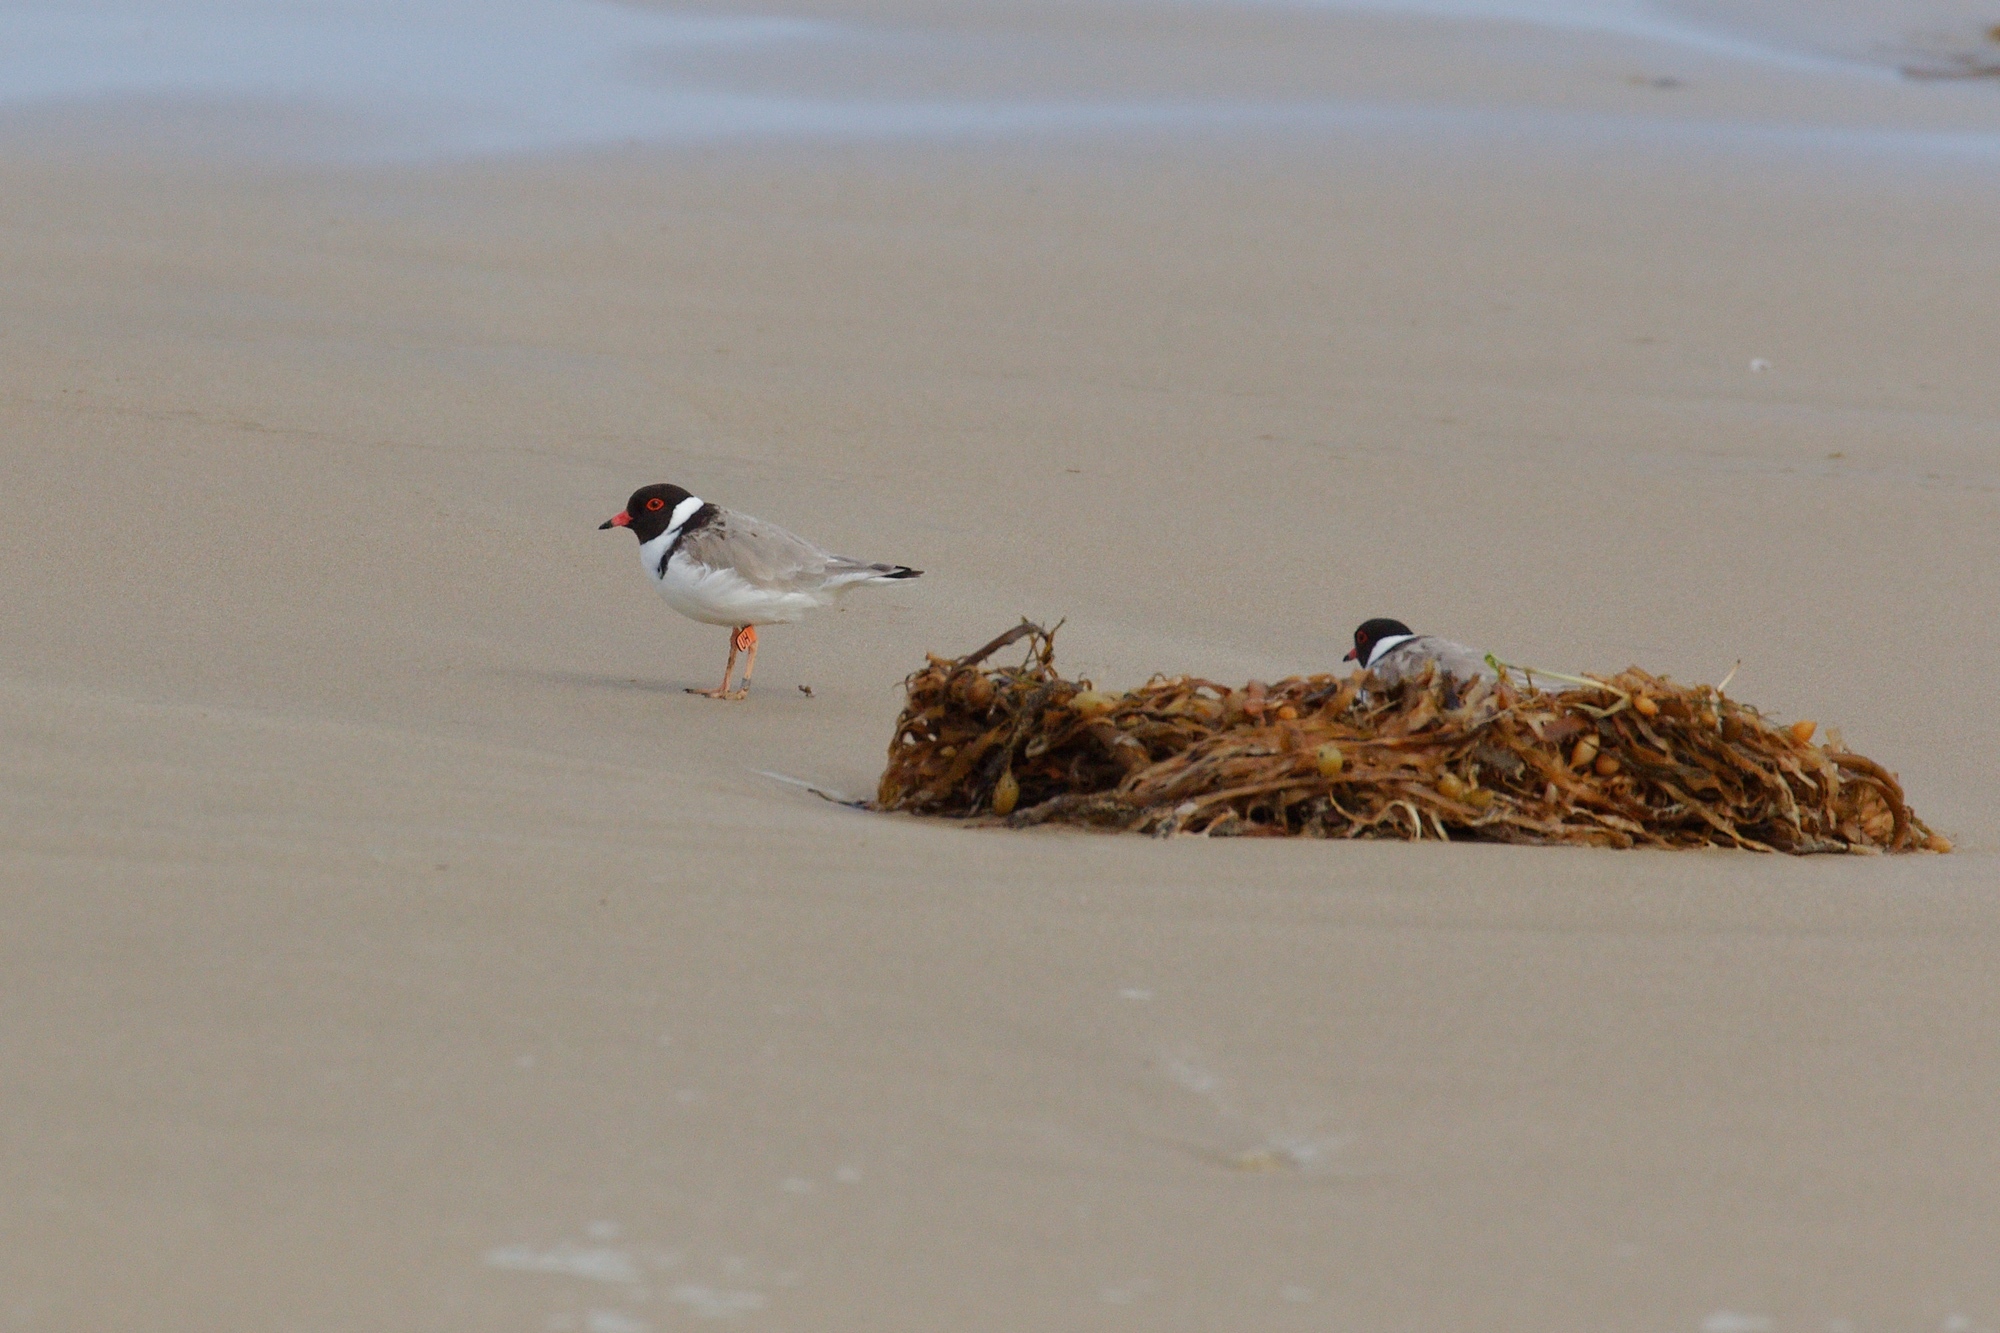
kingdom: Animalia
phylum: Chordata
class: Aves
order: Charadriiformes
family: Charadriidae
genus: Thinornis
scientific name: Thinornis cucullatus
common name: Hooded dotterel
